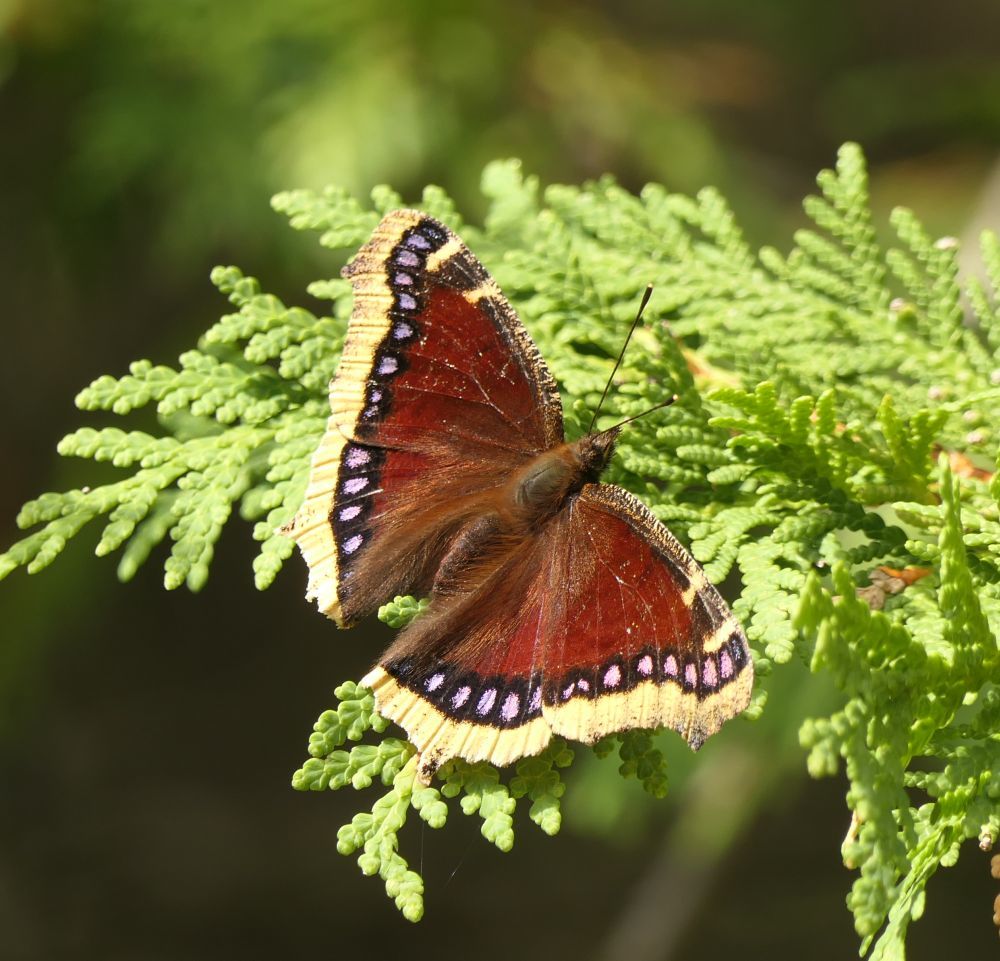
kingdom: Animalia
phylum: Arthropoda
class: Insecta
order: Lepidoptera
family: Nymphalidae
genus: Nymphalis
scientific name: Nymphalis antiopa
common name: Camberwell beauty
